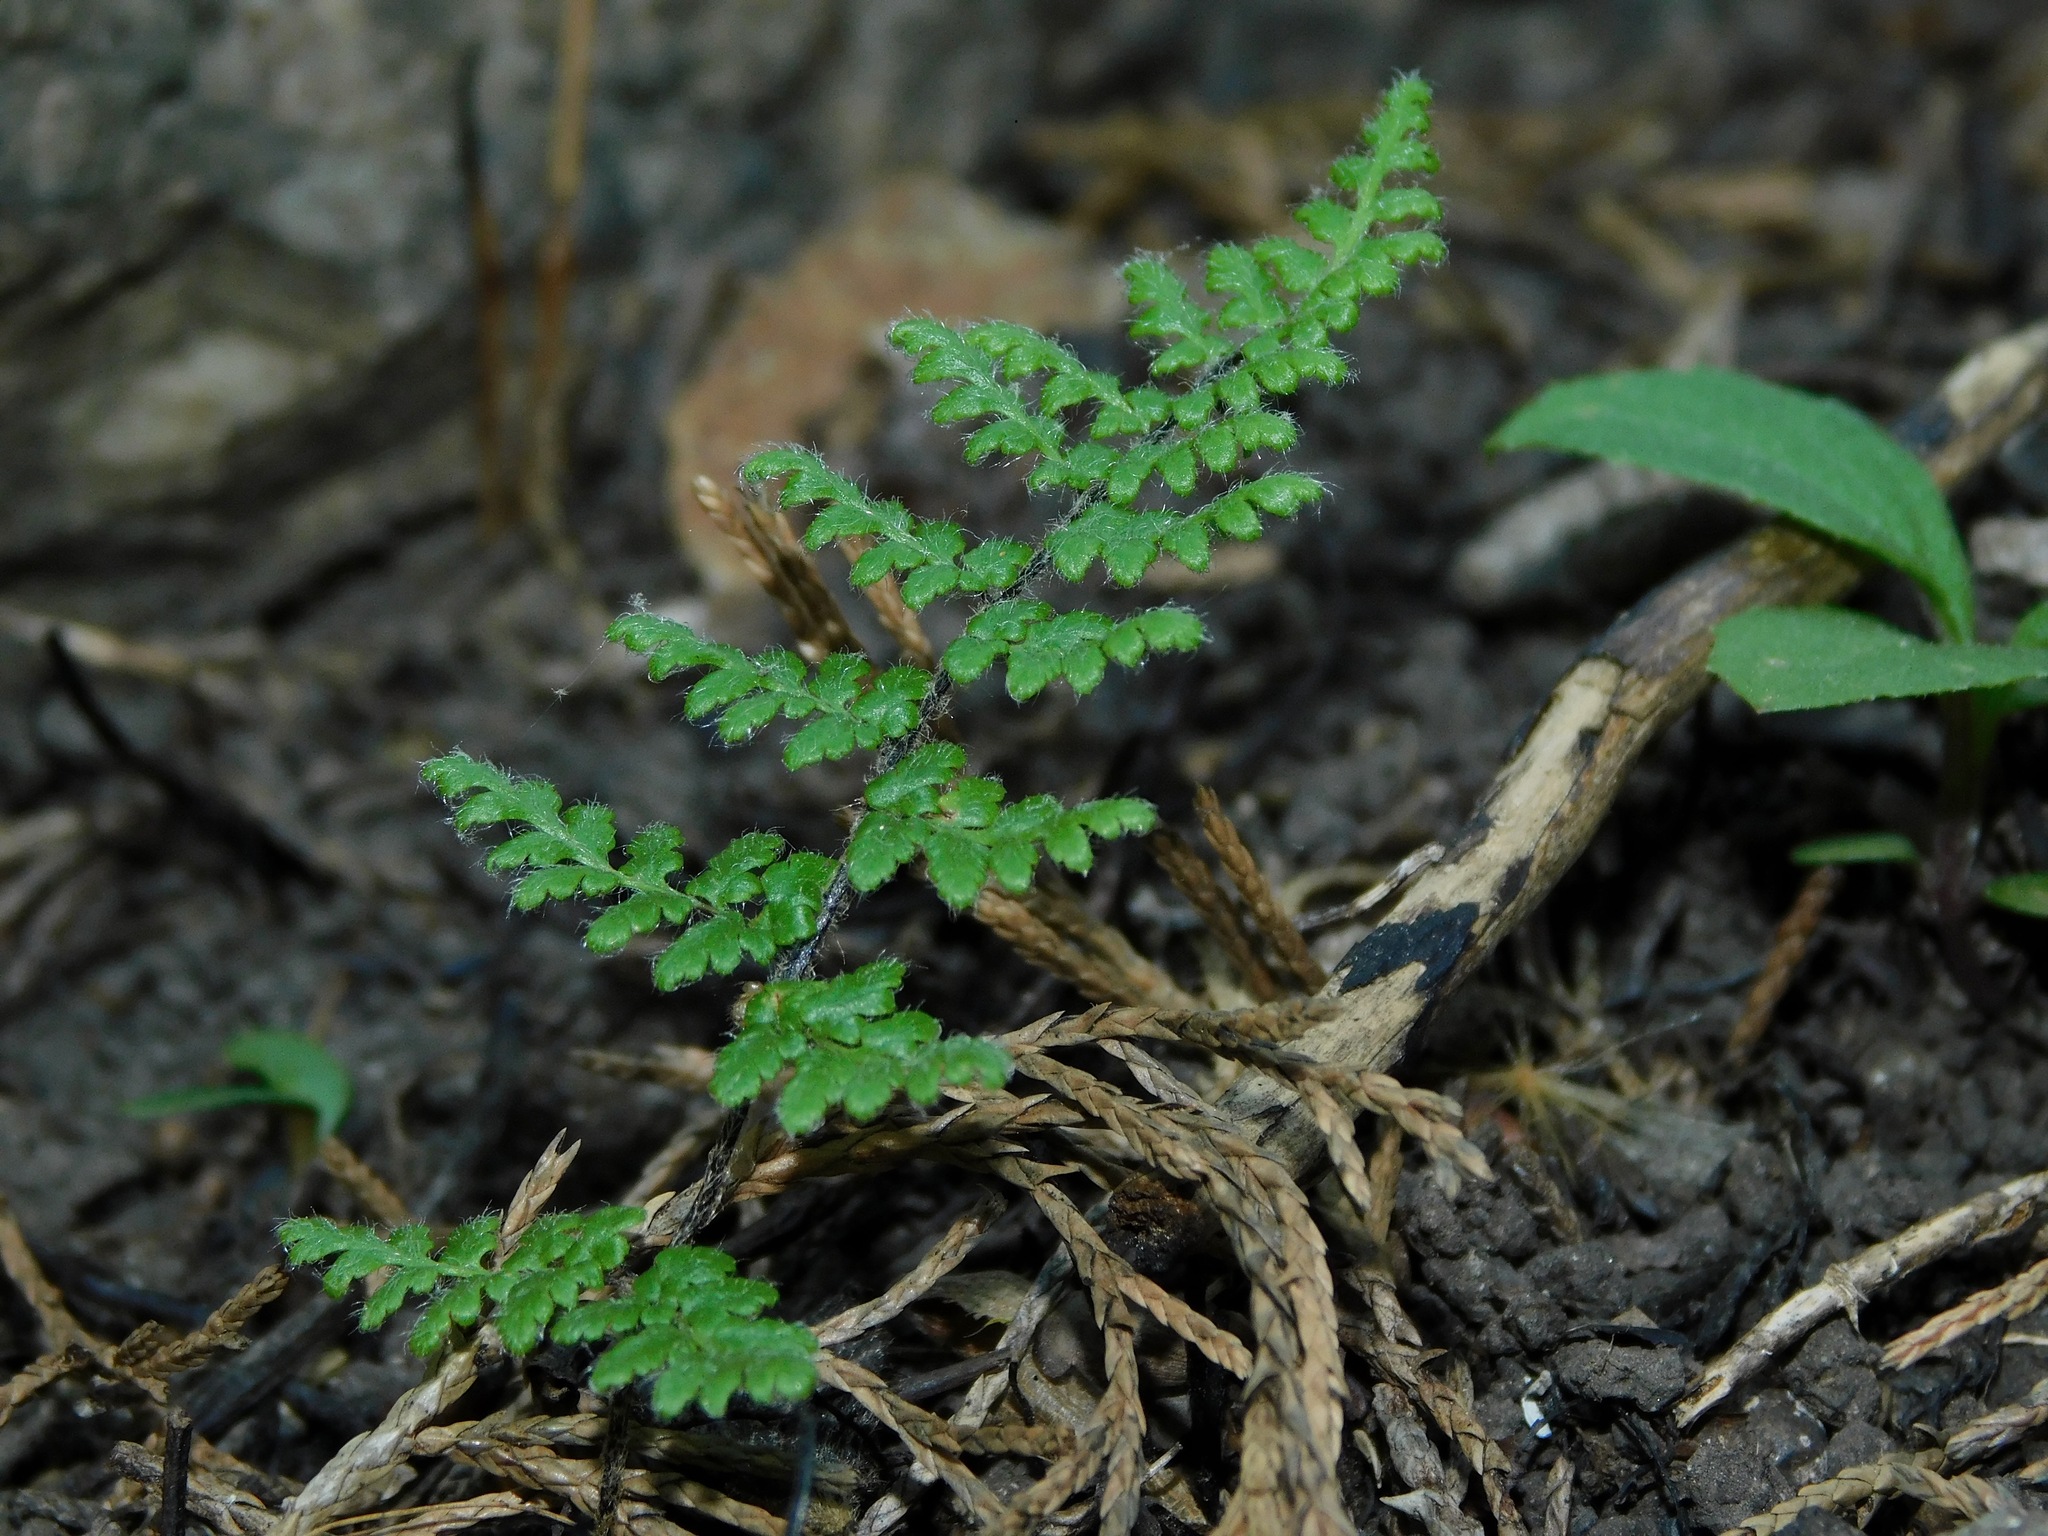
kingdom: Plantae
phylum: Tracheophyta
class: Polypodiopsida
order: Polypodiales
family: Pteridaceae
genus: Myriopteris
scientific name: Myriopteris lanosa
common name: Hairy lip fern
